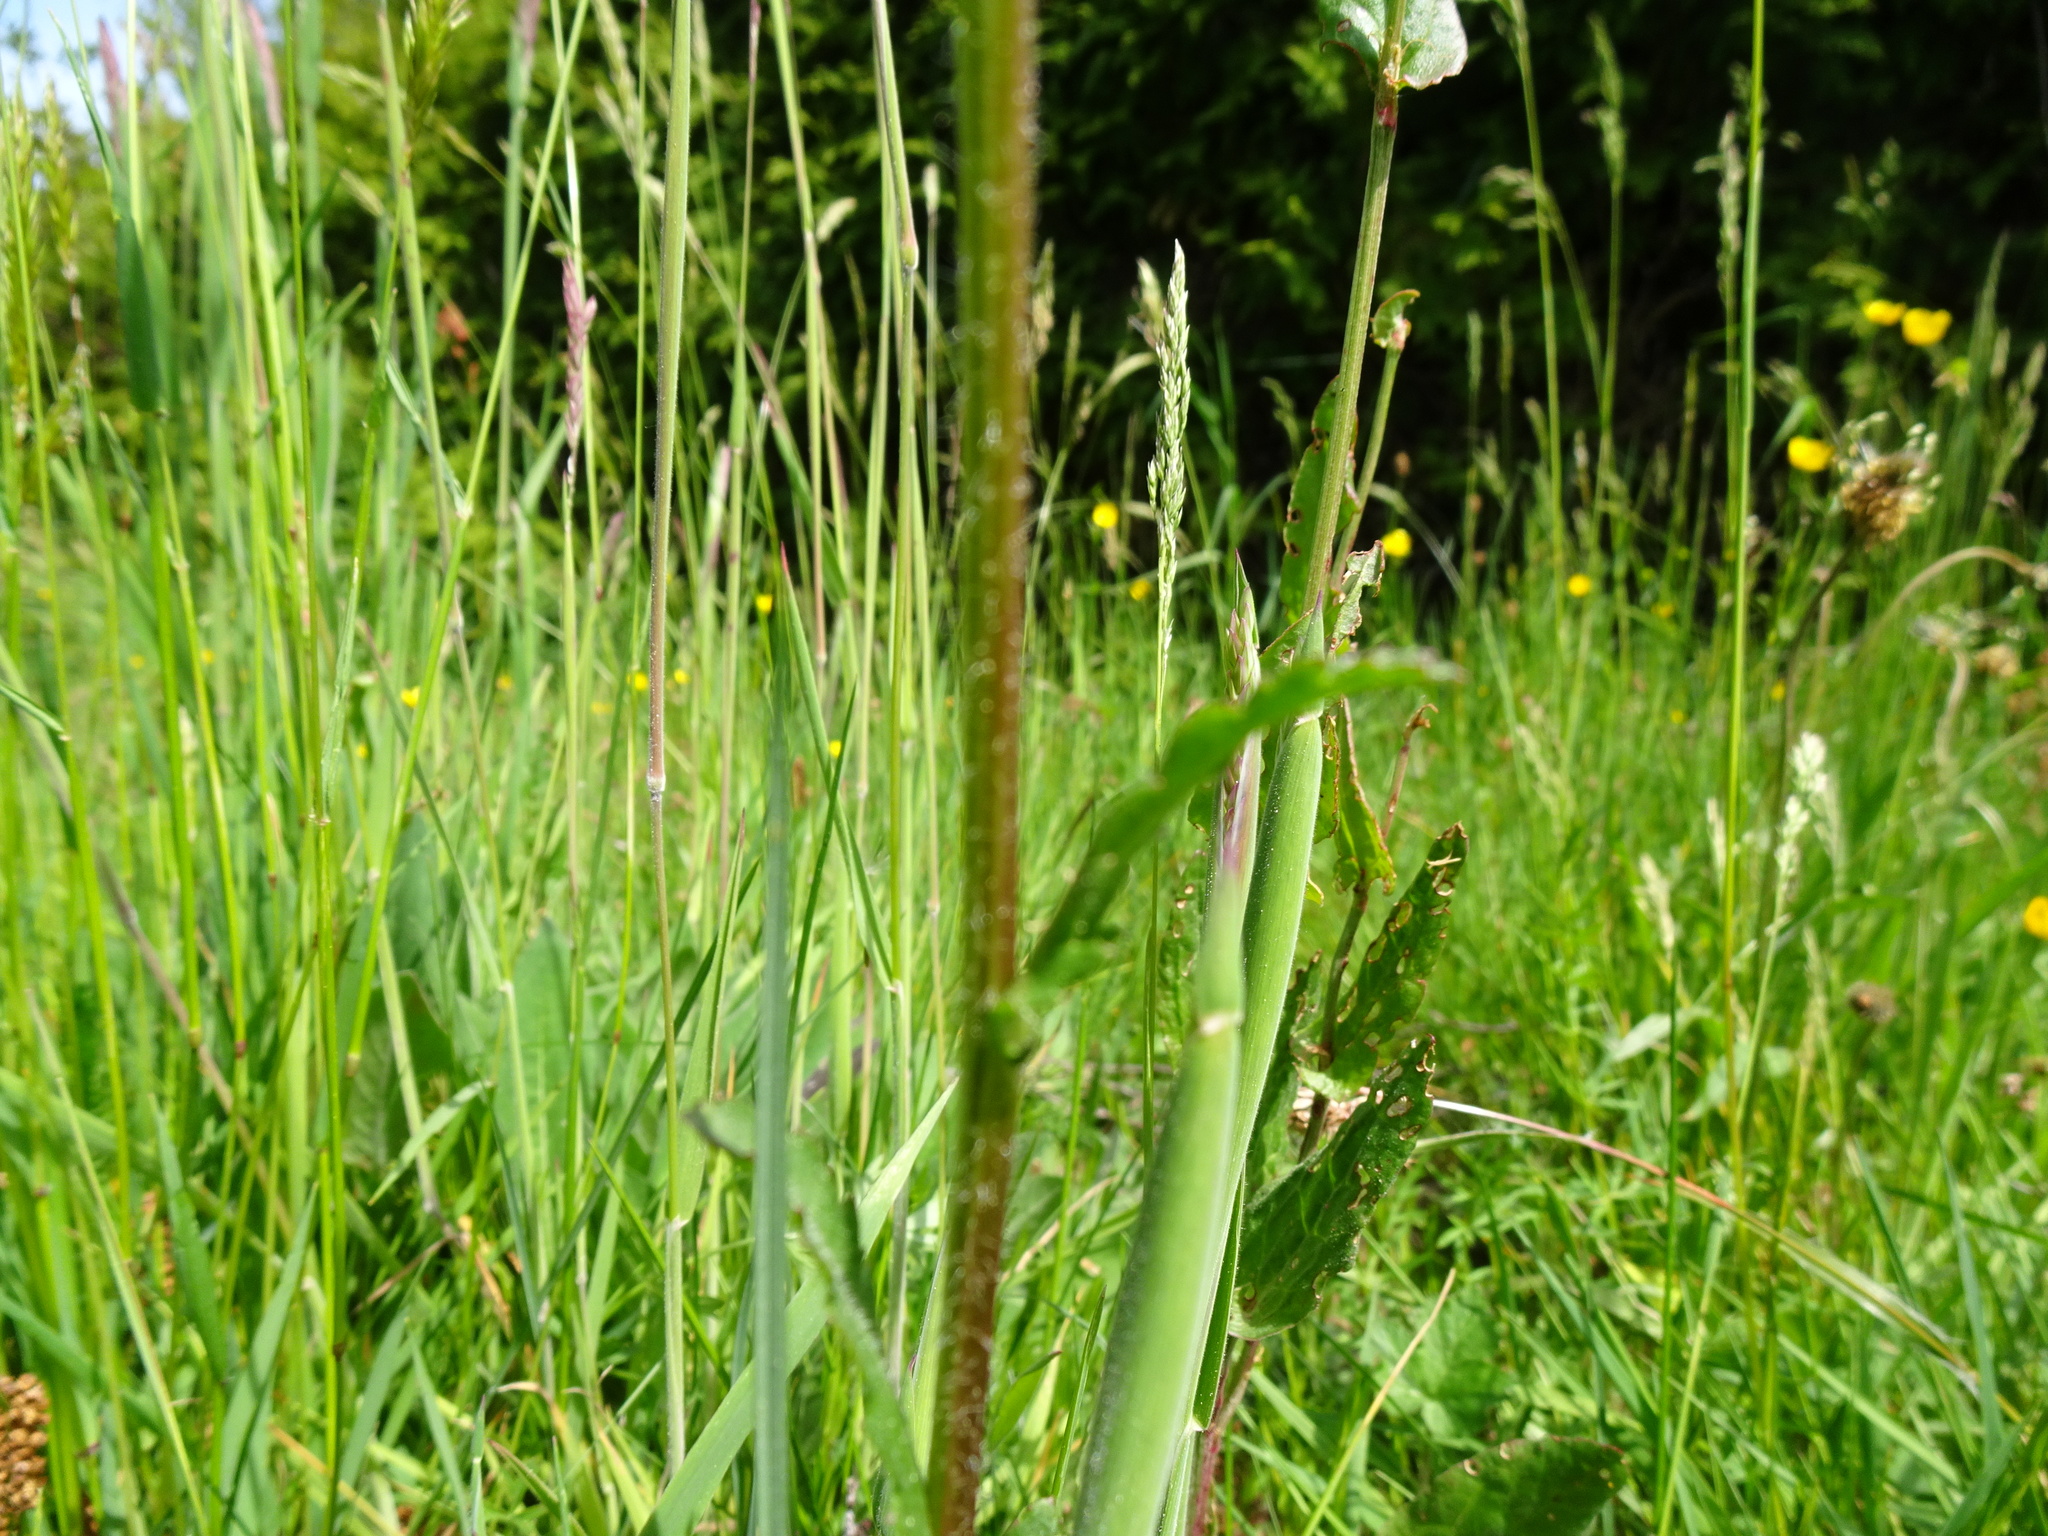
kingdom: Plantae
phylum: Tracheophyta
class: Magnoliopsida
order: Asterales
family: Asteraceae
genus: Leucanthemum
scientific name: Leucanthemum ircutianum
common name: Daisy
